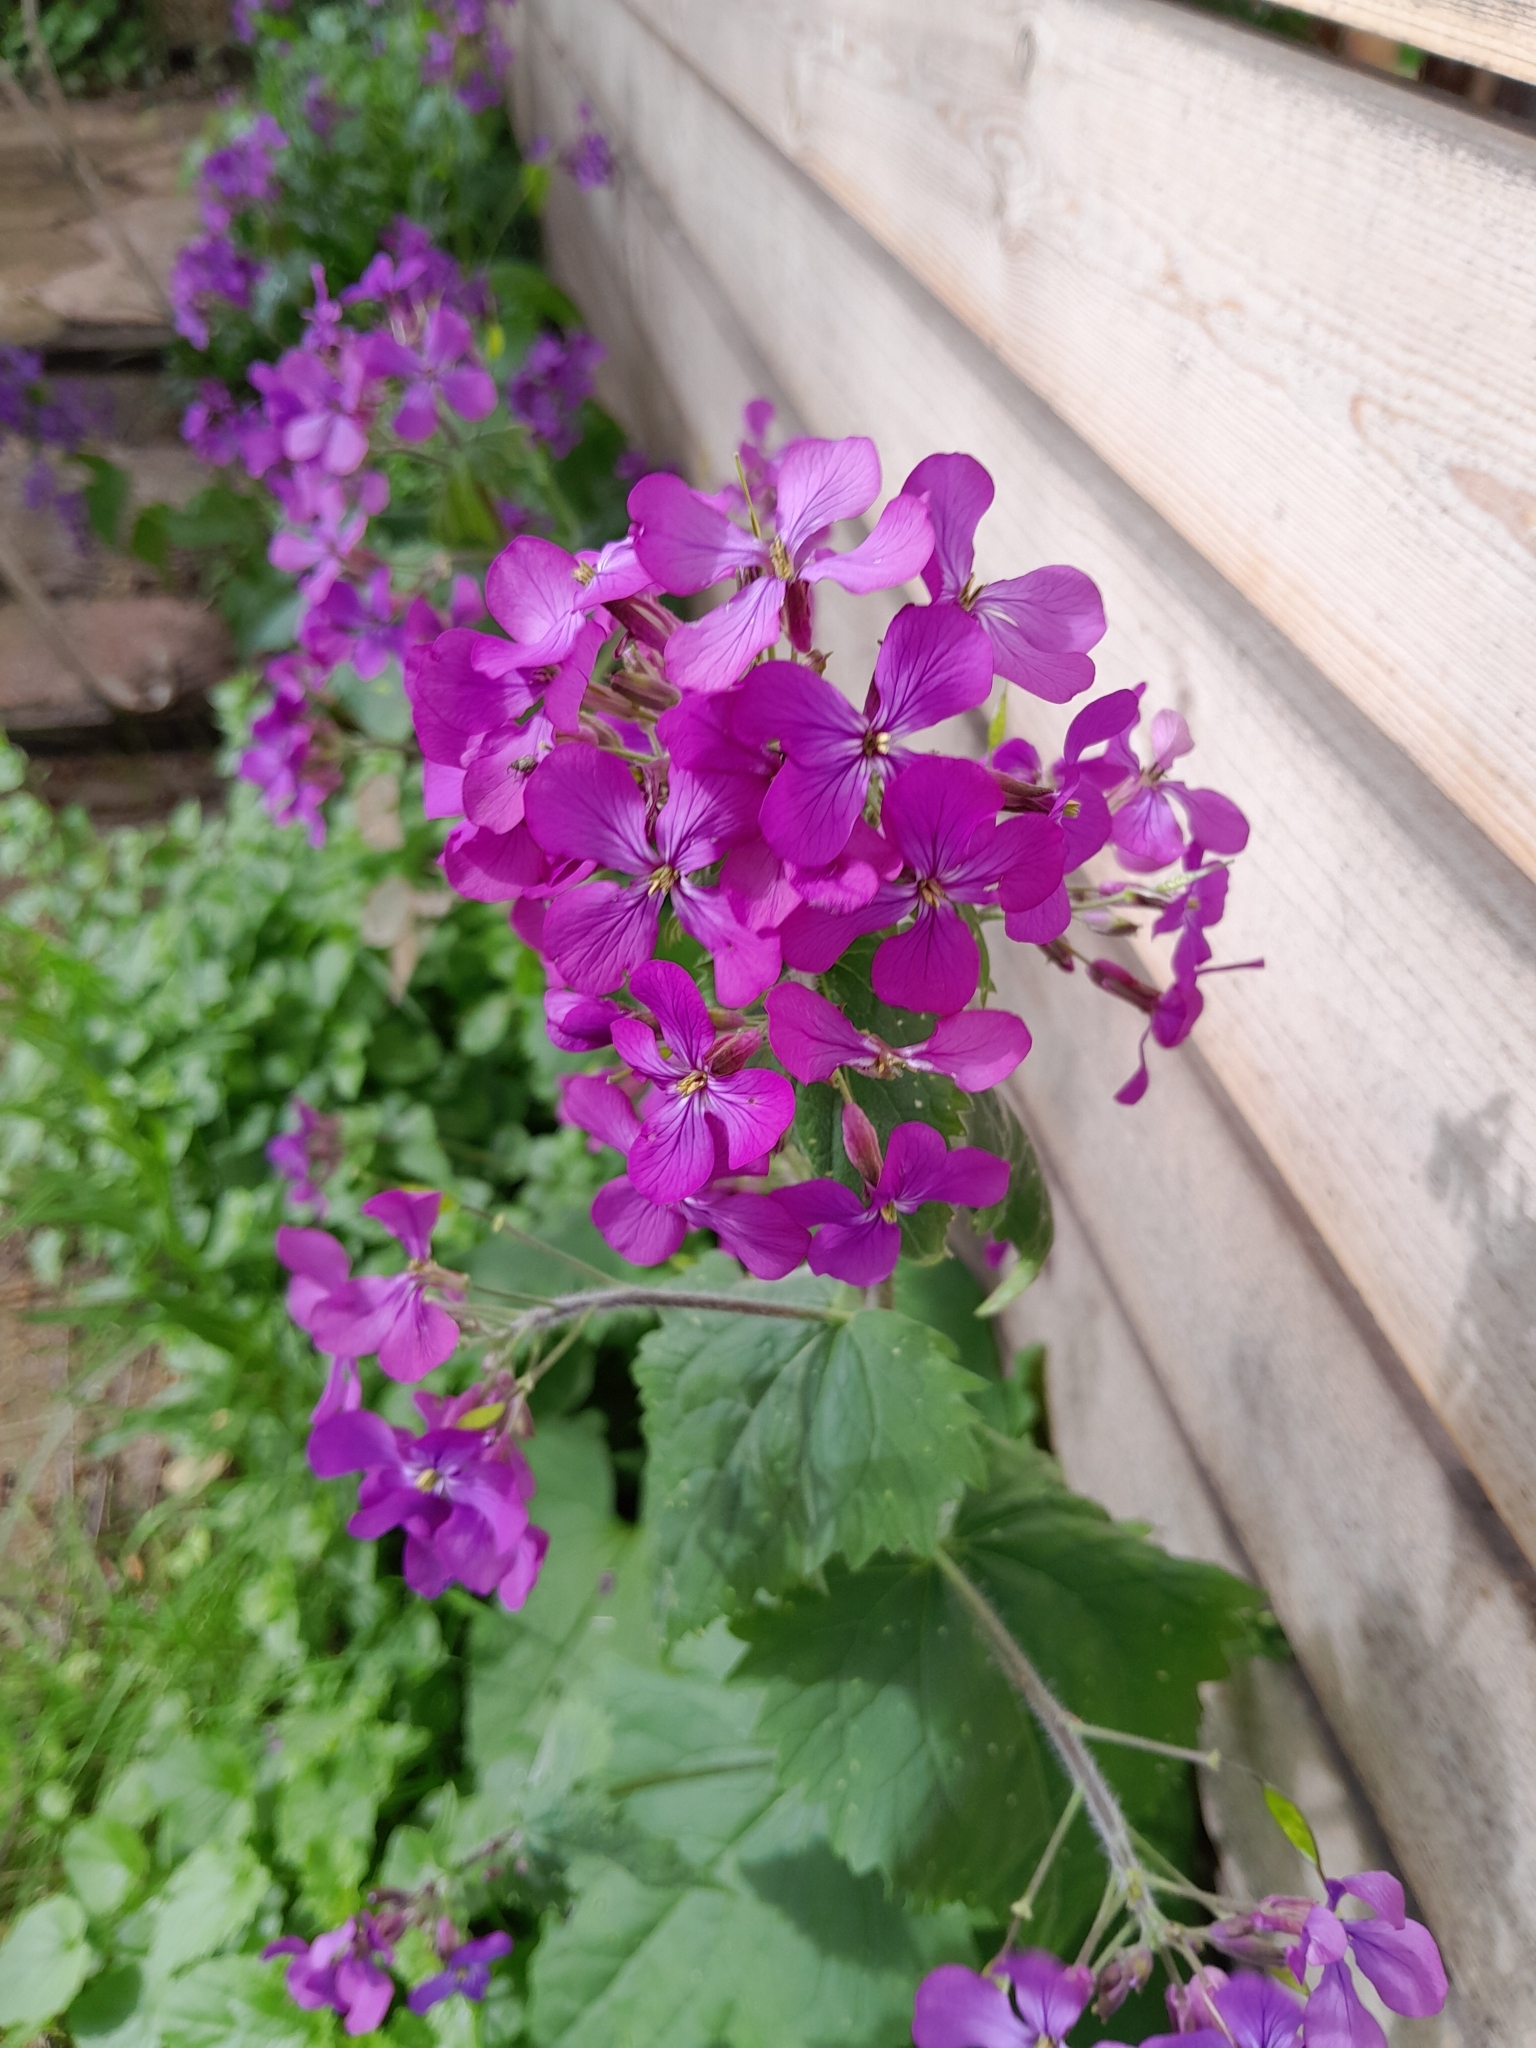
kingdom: Plantae
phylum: Tracheophyta
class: Magnoliopsida
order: Brassicales
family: Brassicaceae
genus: Lunaria
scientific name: Lunaria annua
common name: Honesty
